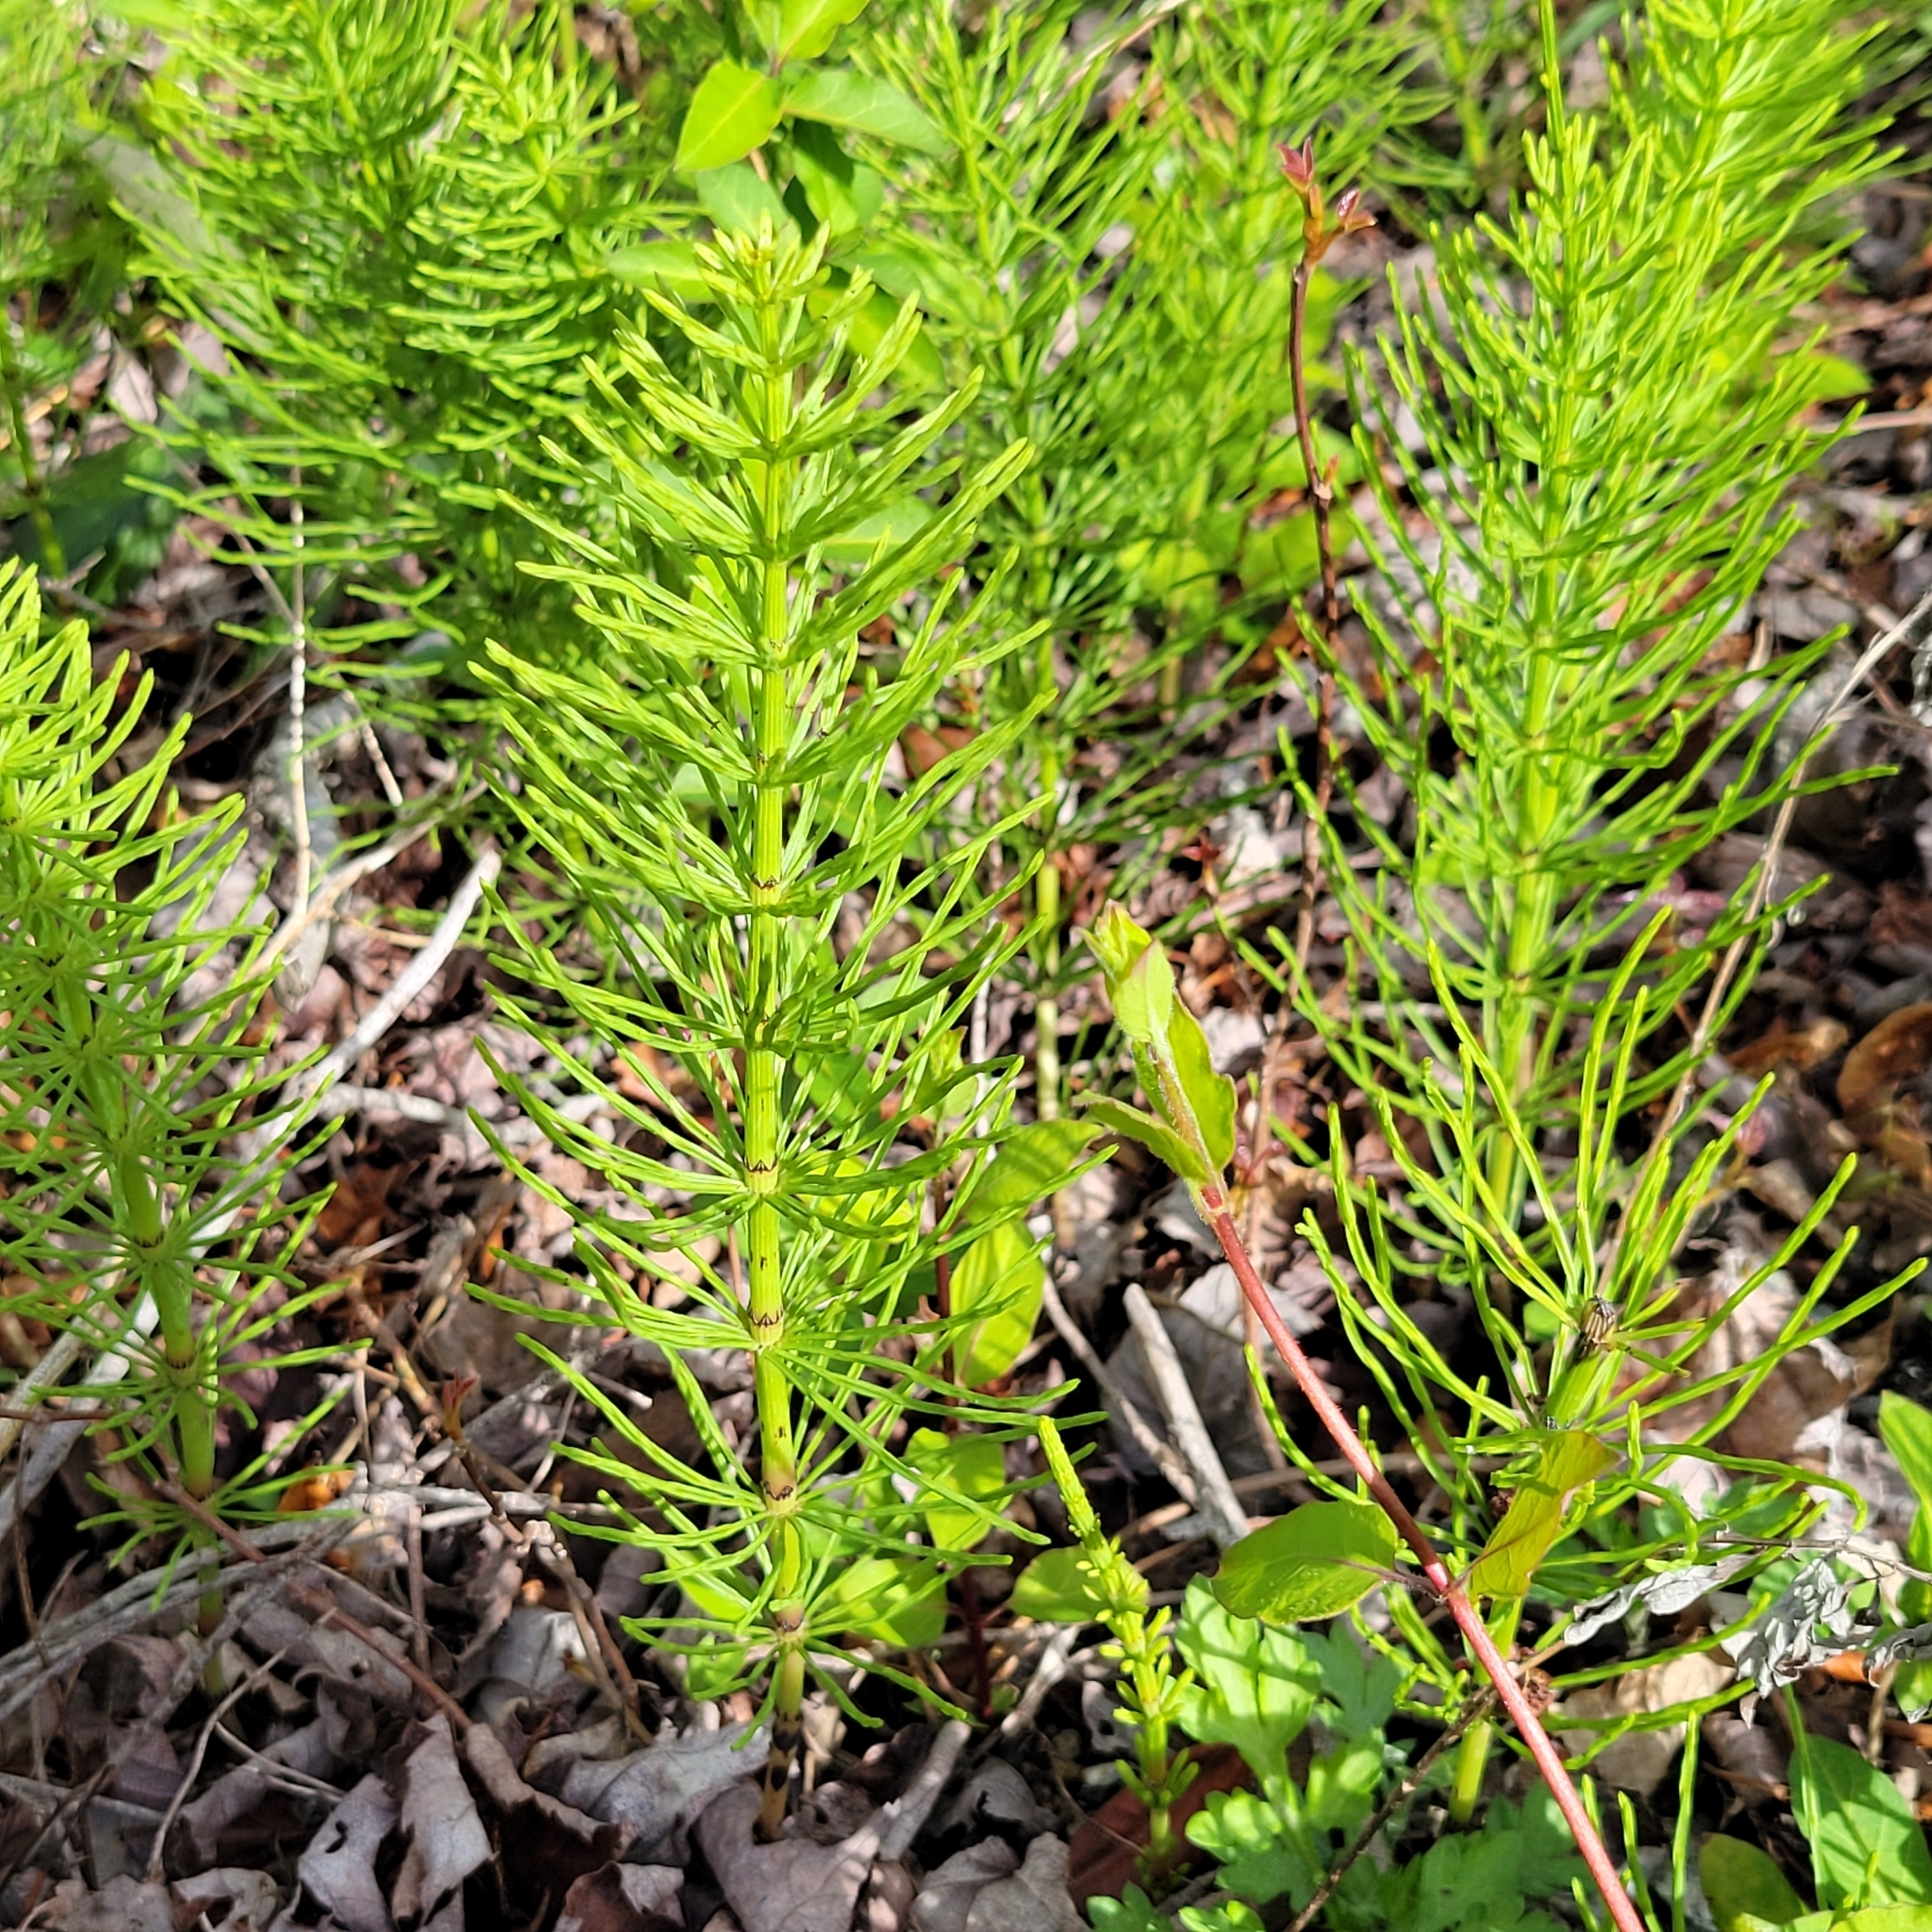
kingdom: Plantae
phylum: Tracheophyta
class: Polypodiopsida
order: Equisetales
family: Equisetaceae
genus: Equisetum
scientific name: Equisetum arvense
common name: Field horsetail
